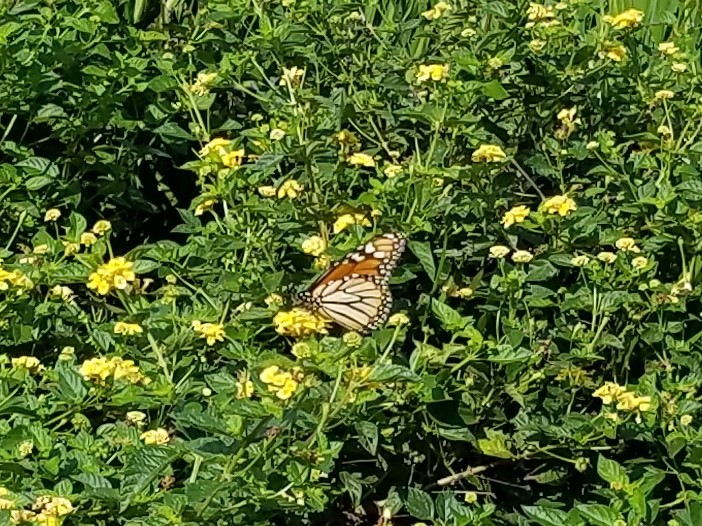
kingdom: Animalia
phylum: Arthropoda
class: Insecta
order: Lepidoptera
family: Nymphalidae
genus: Danaus
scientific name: Danaus plexippus
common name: Monarch
